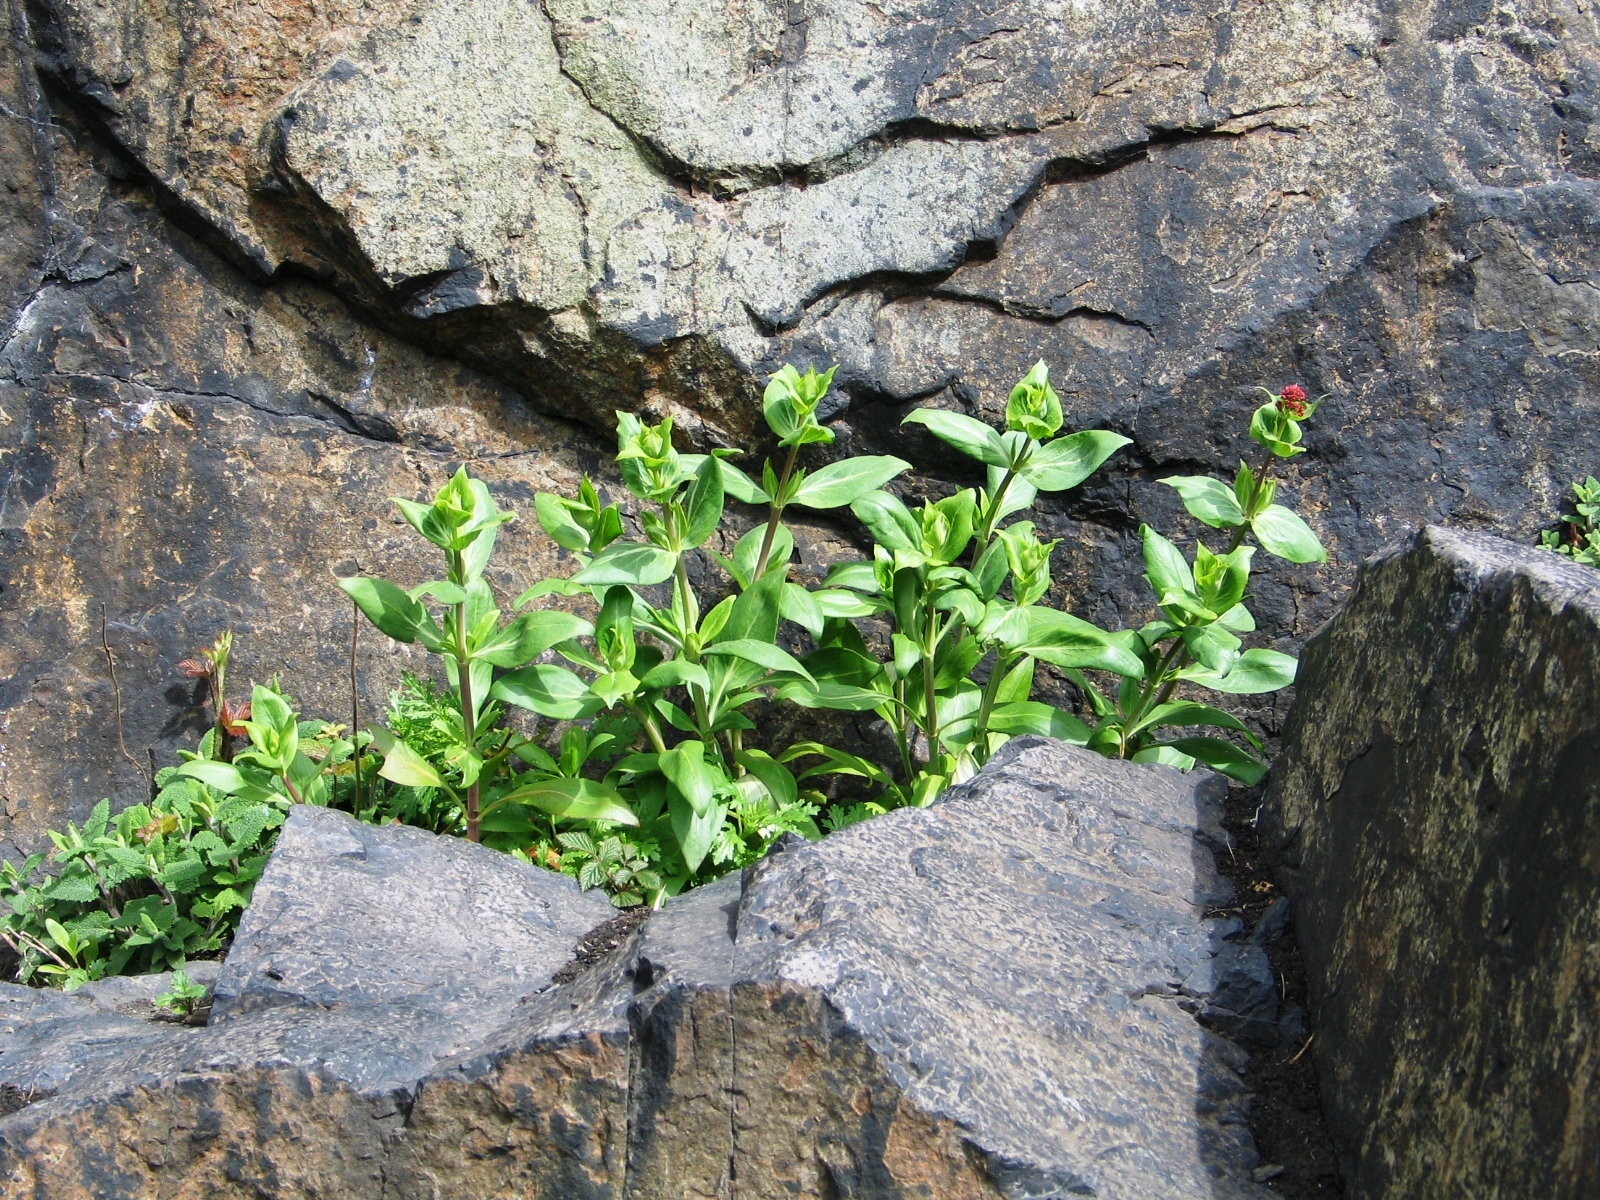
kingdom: Plantae
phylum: Tracheophyta
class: Magnoliopsida
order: Dipsacales
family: Caprifoliaceae
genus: Centranthus
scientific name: Centranthus ruber
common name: Red valerian
